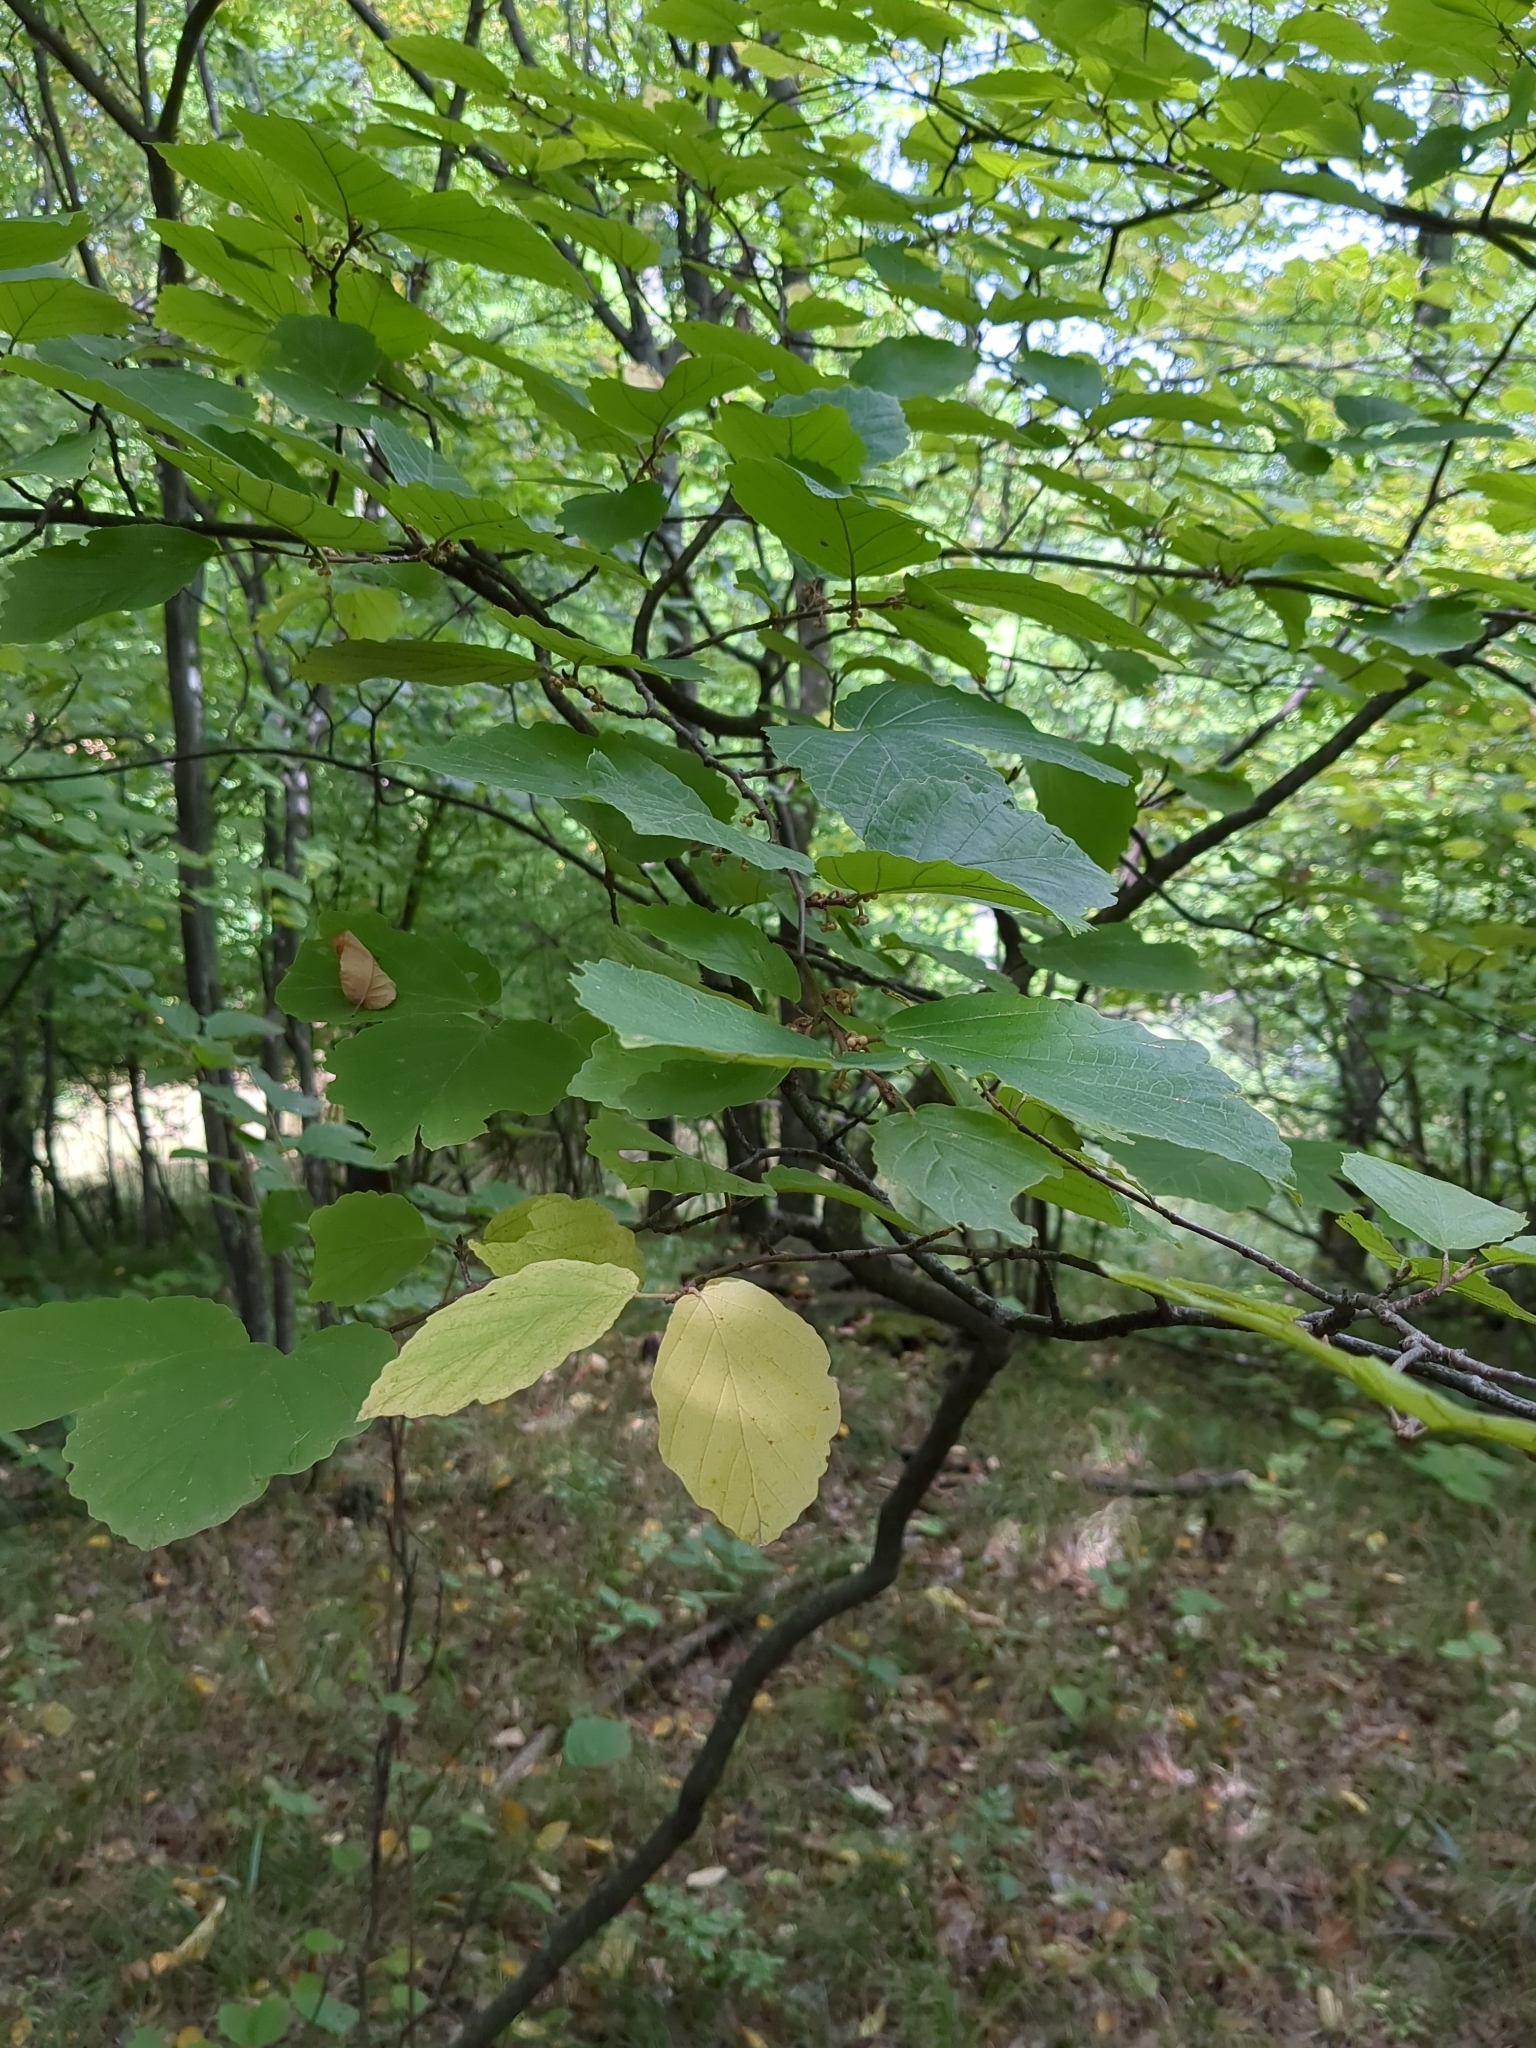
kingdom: Plantae
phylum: Tracheophyta
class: Magnoliopsida
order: Saxifragales
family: Hamamelidaceae
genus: Hamamelis
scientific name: Hamamelis virginiana
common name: Witch-hazel
